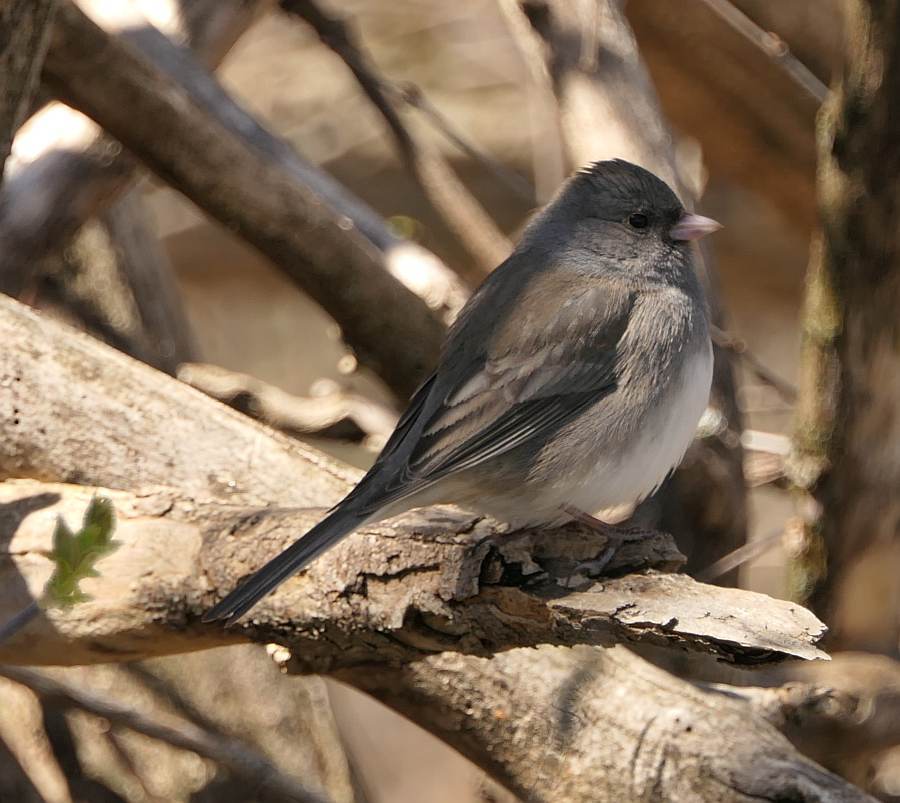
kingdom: Animalia
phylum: Chordata
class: Aves
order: Passeriformes
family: Passerellidae
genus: Junco
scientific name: Junco hyemalis
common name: Dark-eyed junco
